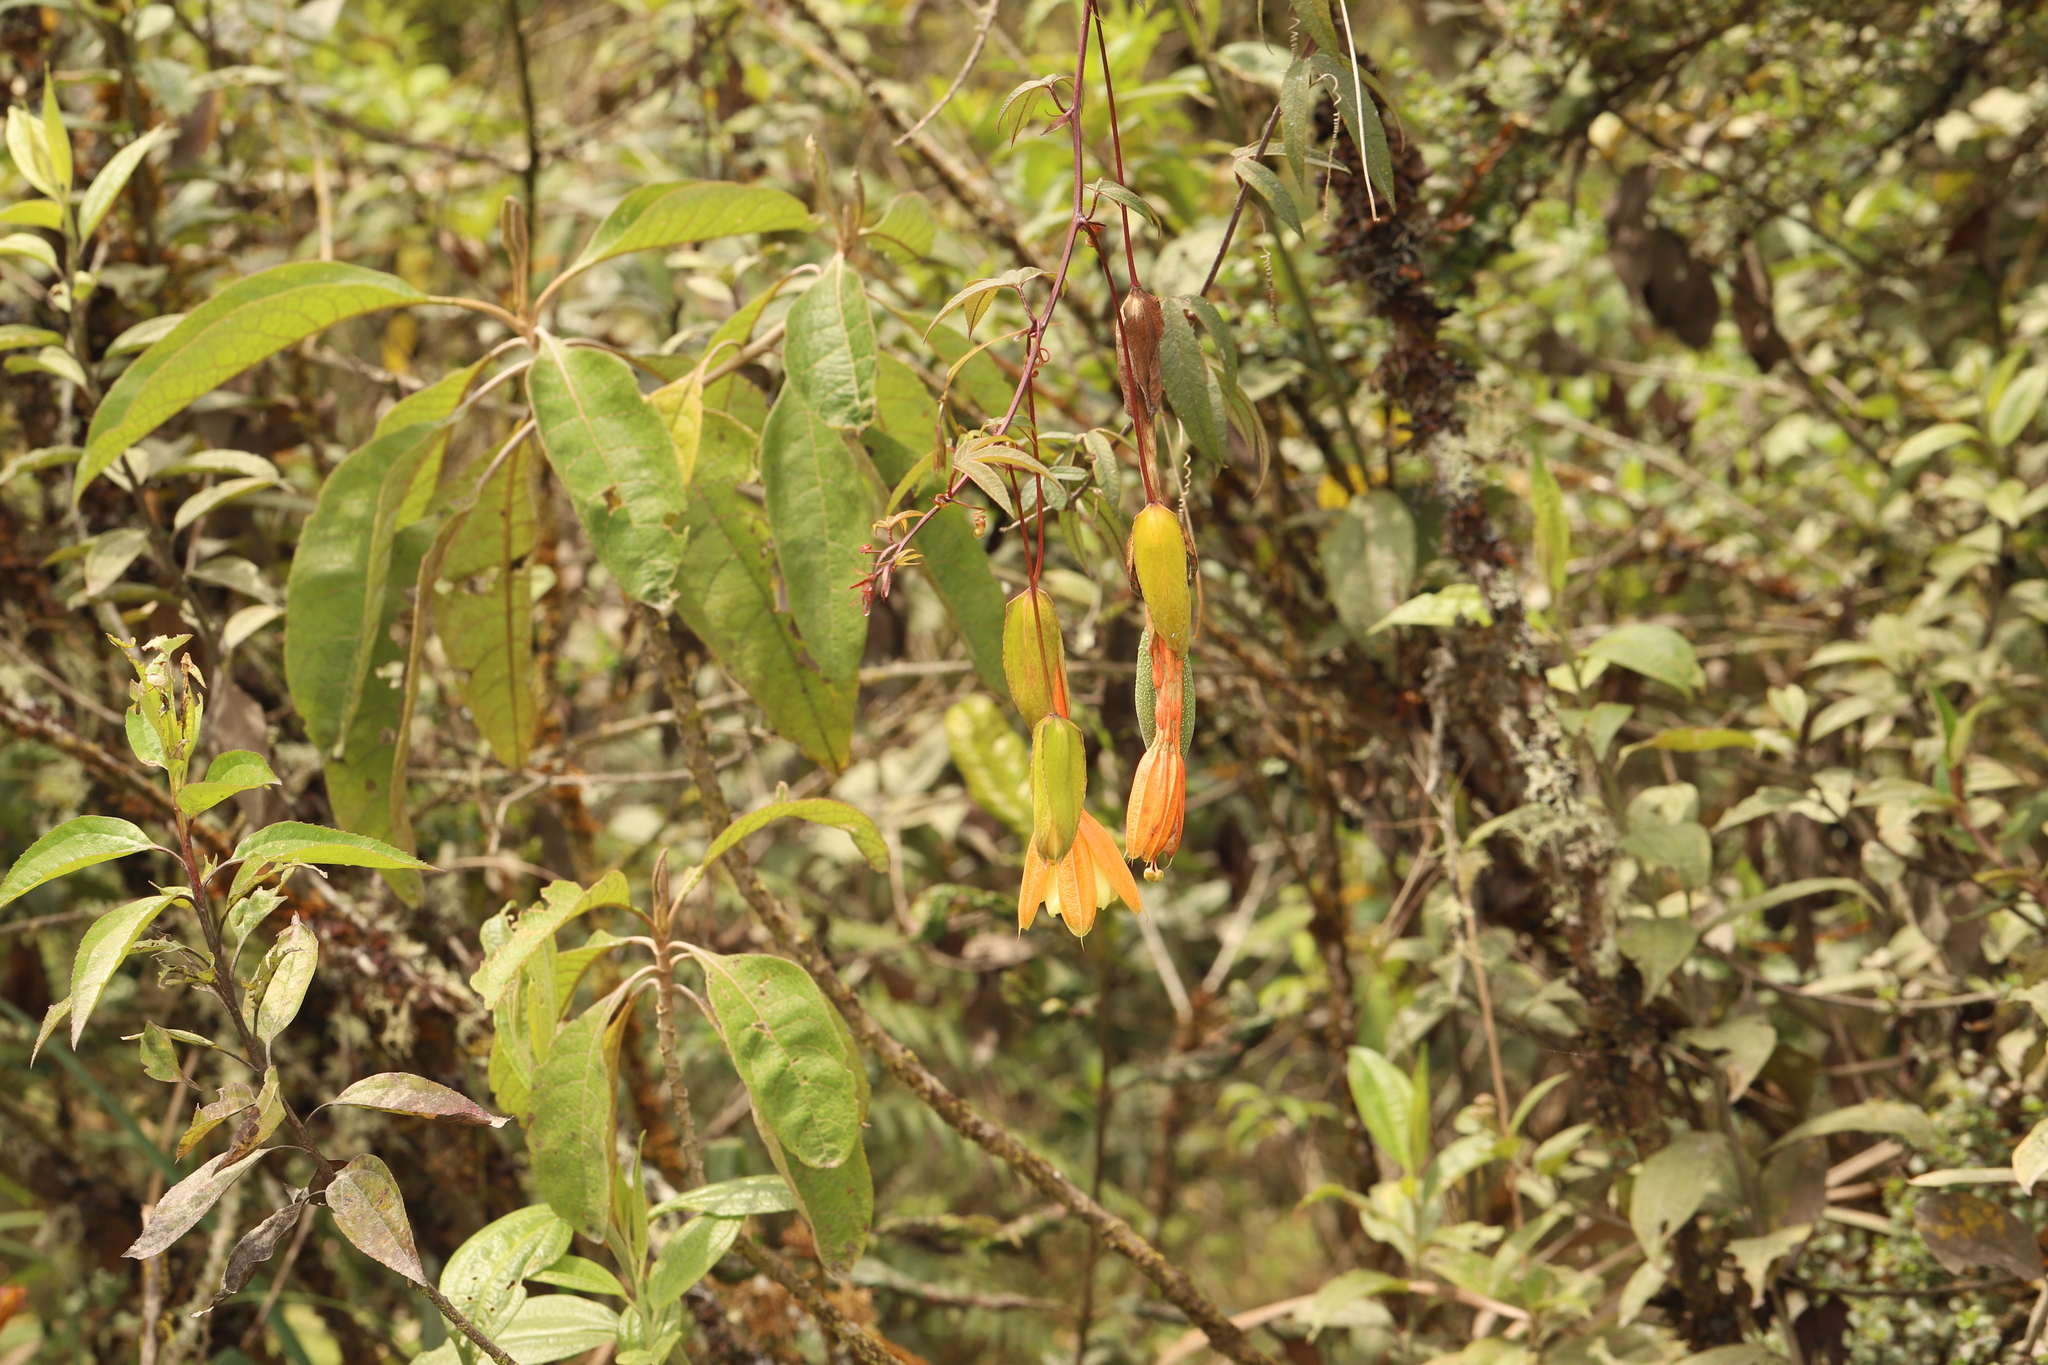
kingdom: Plantae
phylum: Tracheophyta
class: Magnoliopsida
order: Malpighiales
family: Passifloraceae
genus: Passiflora
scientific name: Passiflora linearistipula
